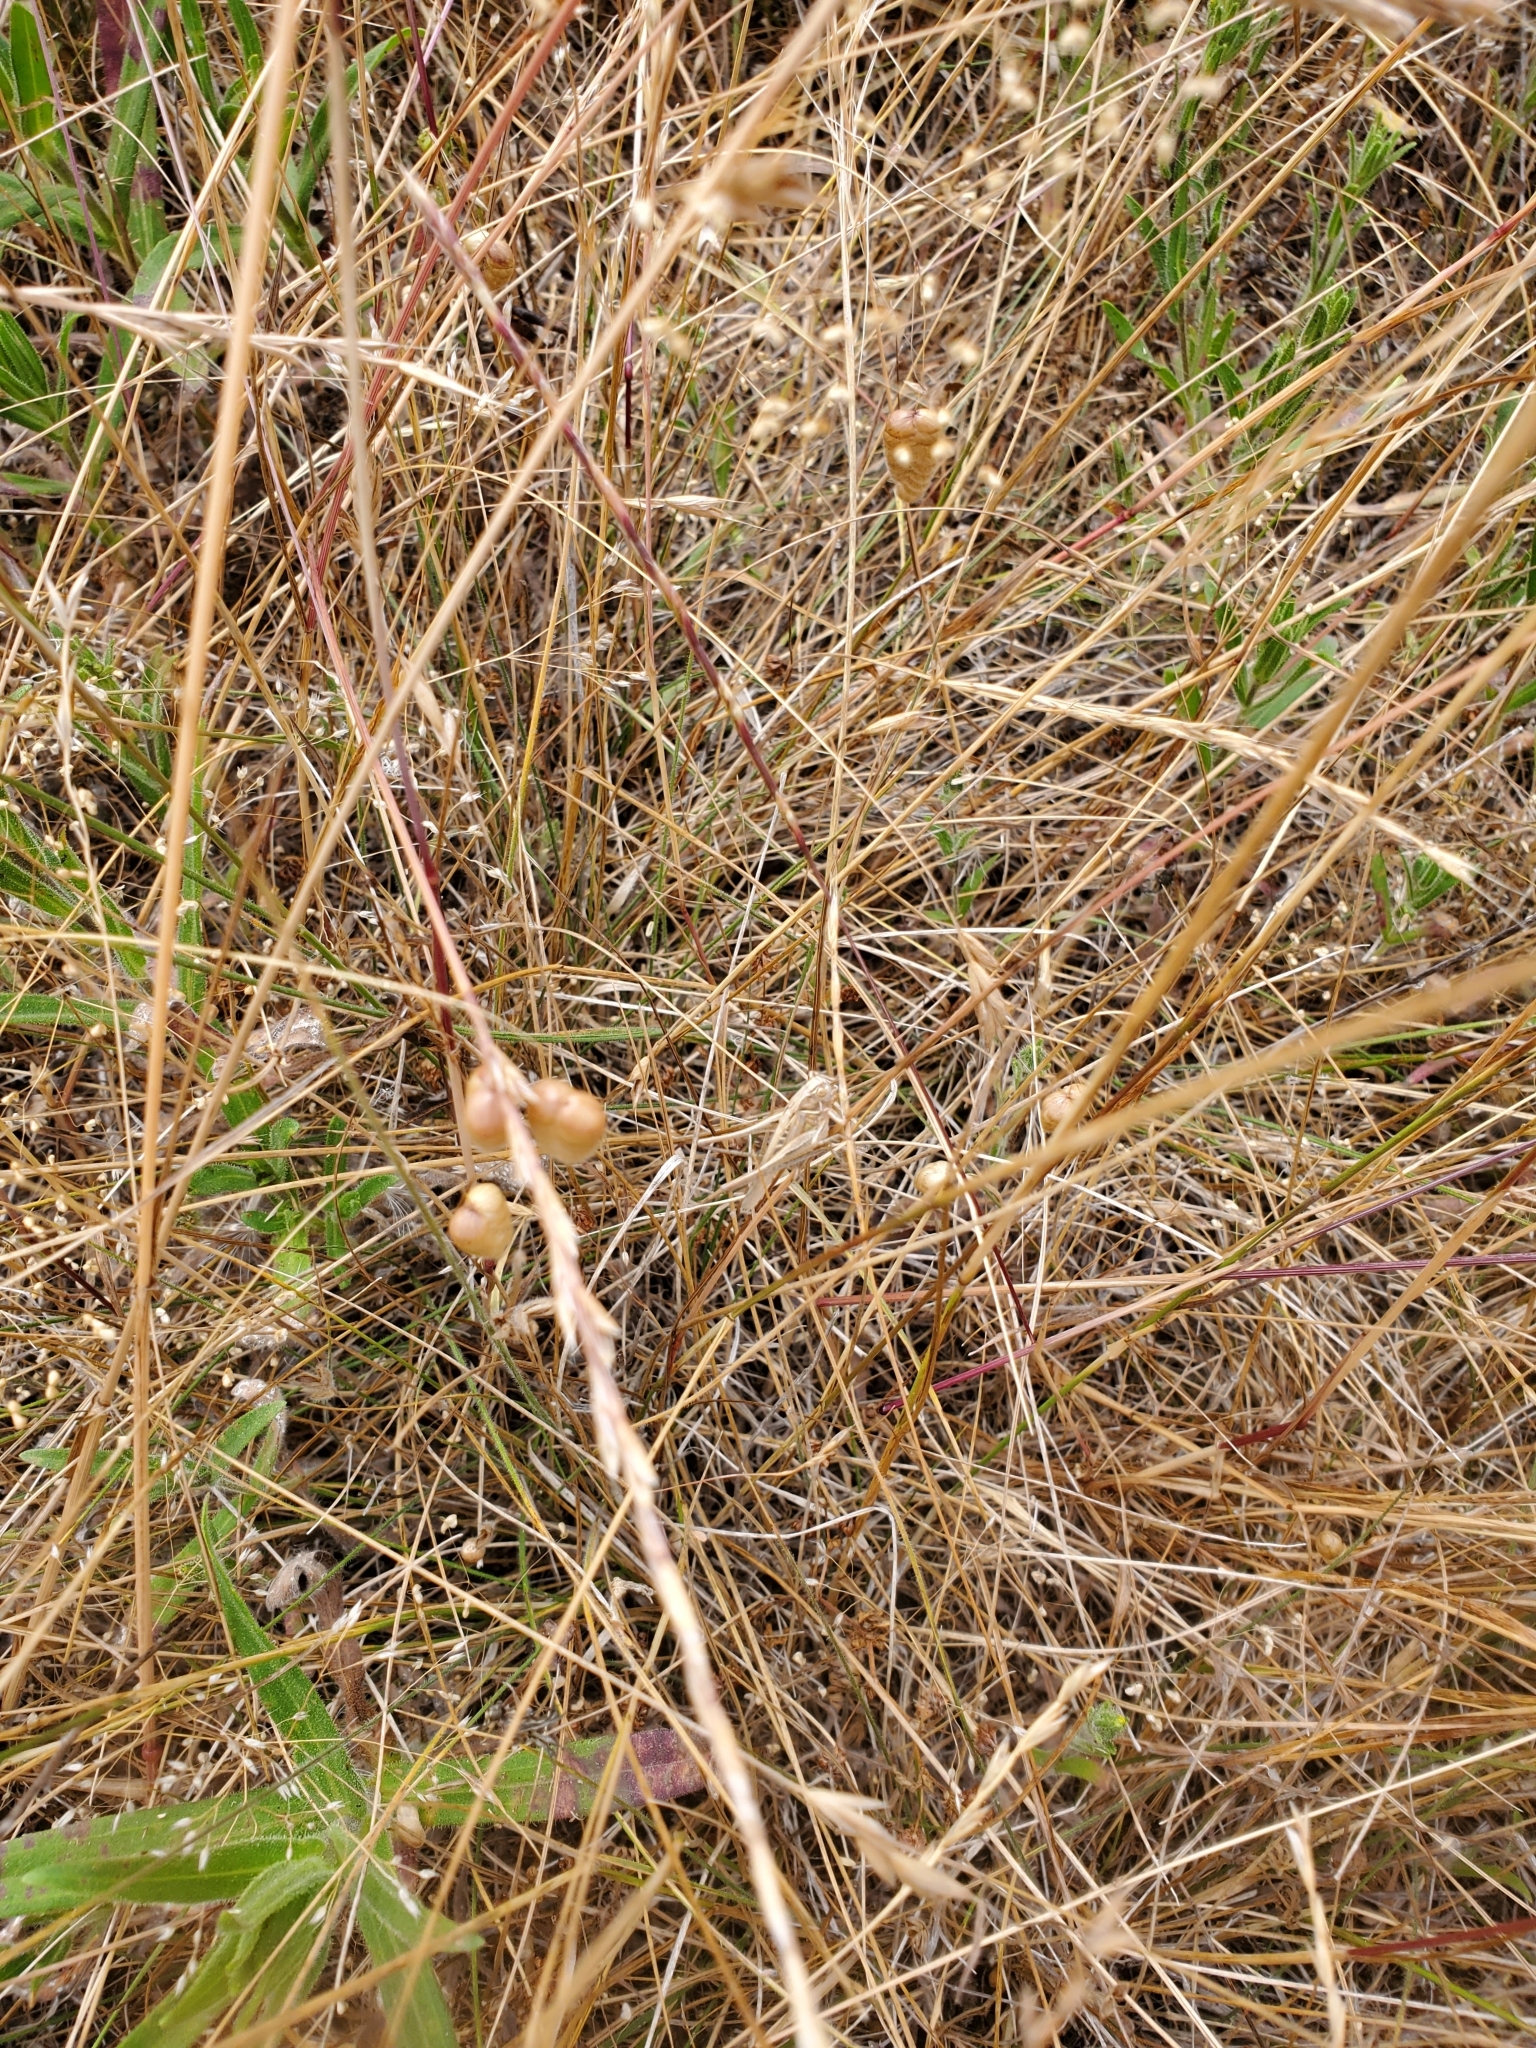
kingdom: Animalia
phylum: Arthropoda
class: Insecta
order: Orthoptera
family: Tettigoniidae
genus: Tessellana
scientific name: Tessellana tessellata
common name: Grasshopper
